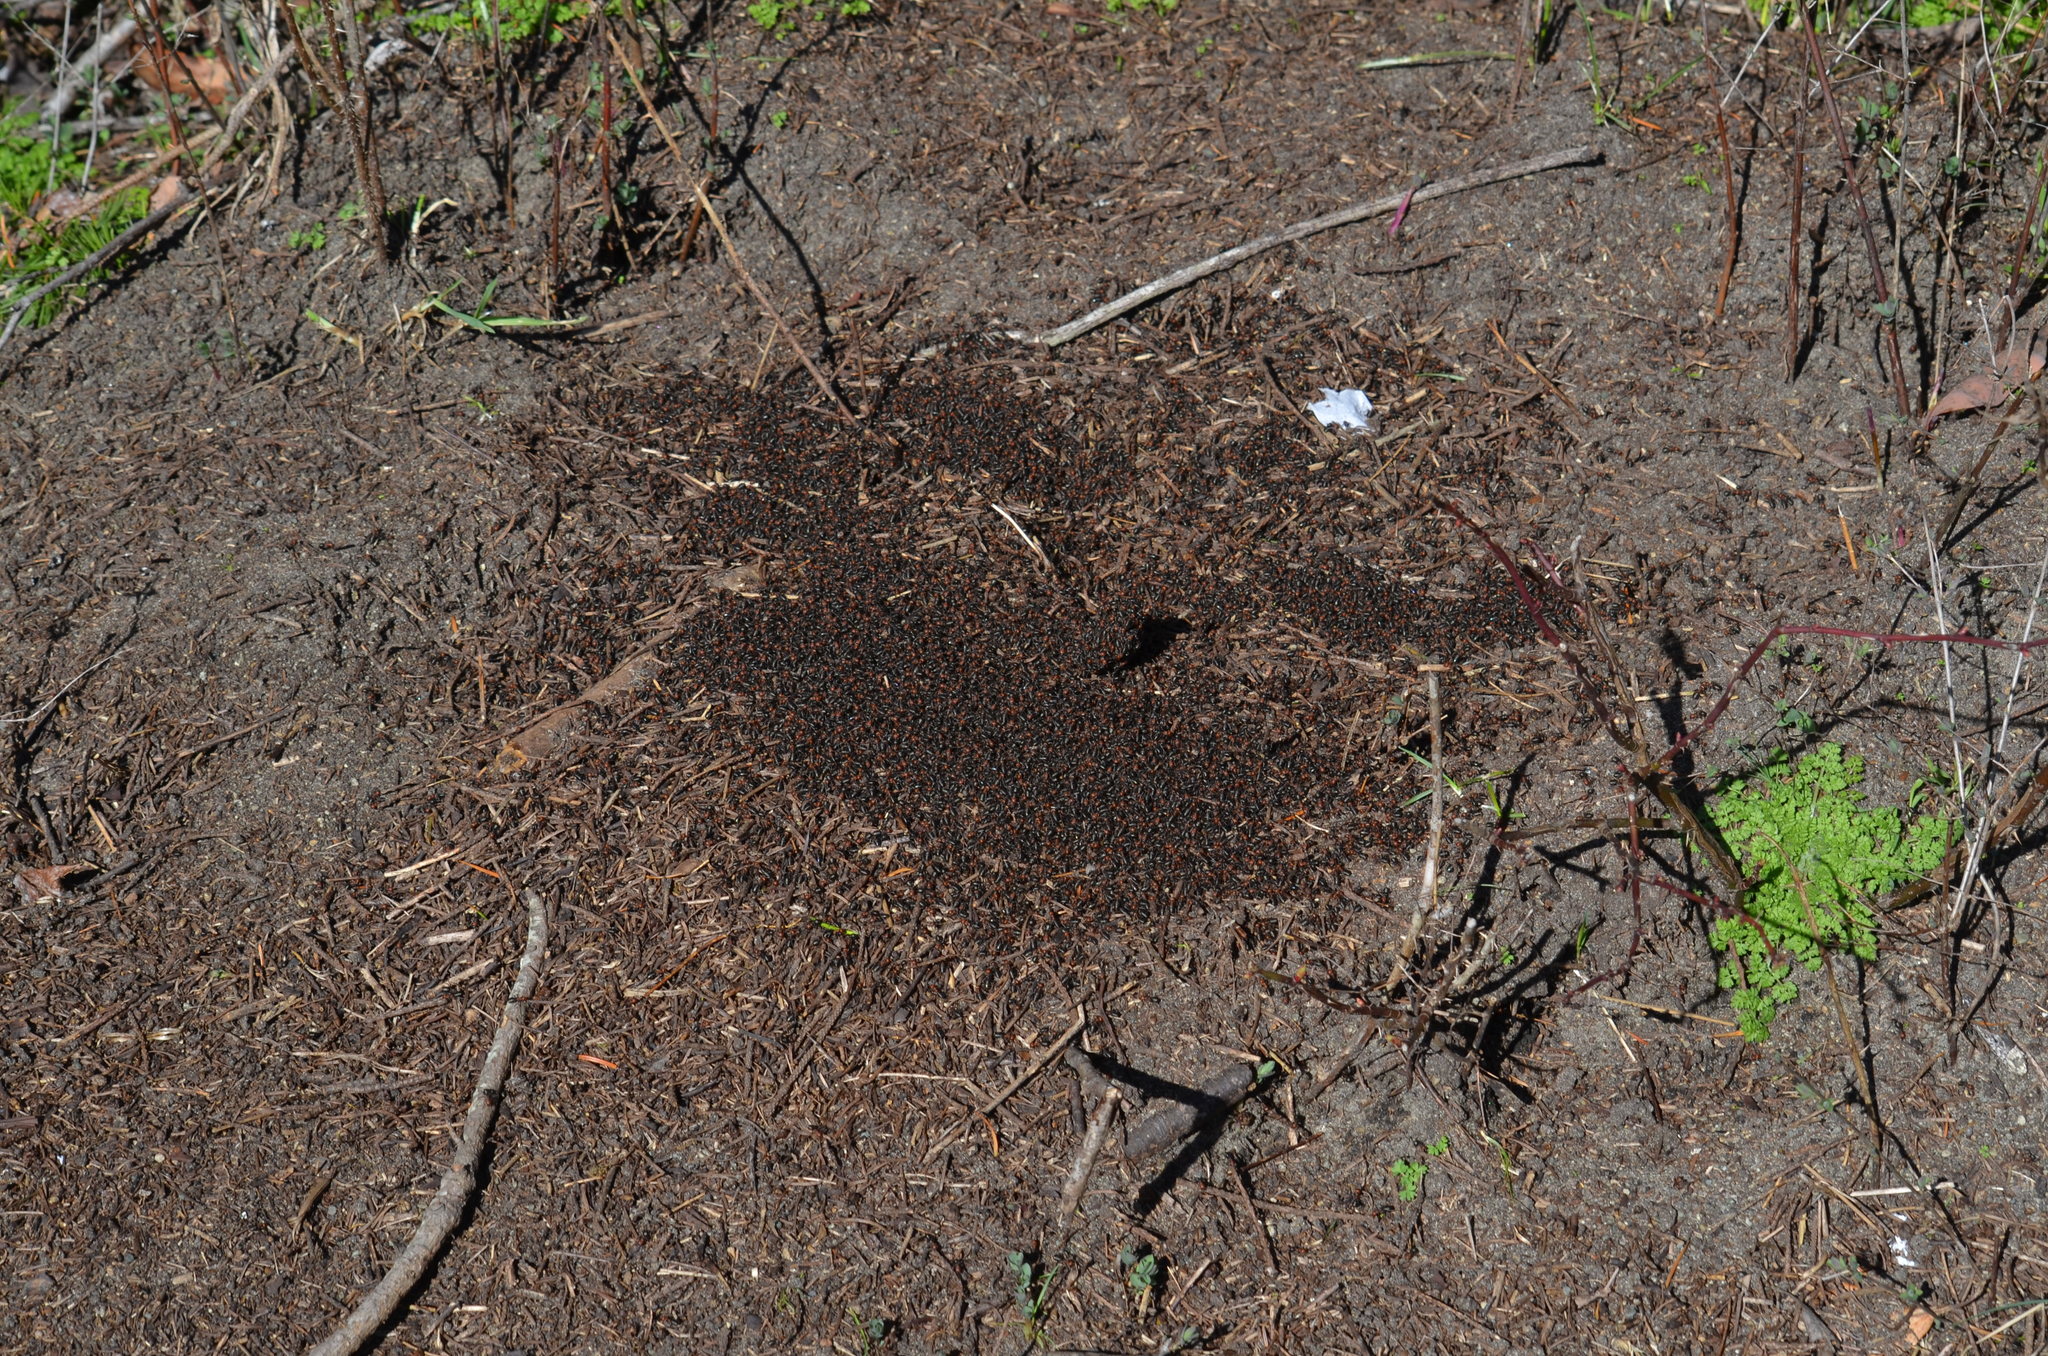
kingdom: Animalia
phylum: Arthropoda
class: Insecta
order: Hymenoptera
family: Formicidae
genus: Formica
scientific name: Formica obscuripes
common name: Western thatching ant
